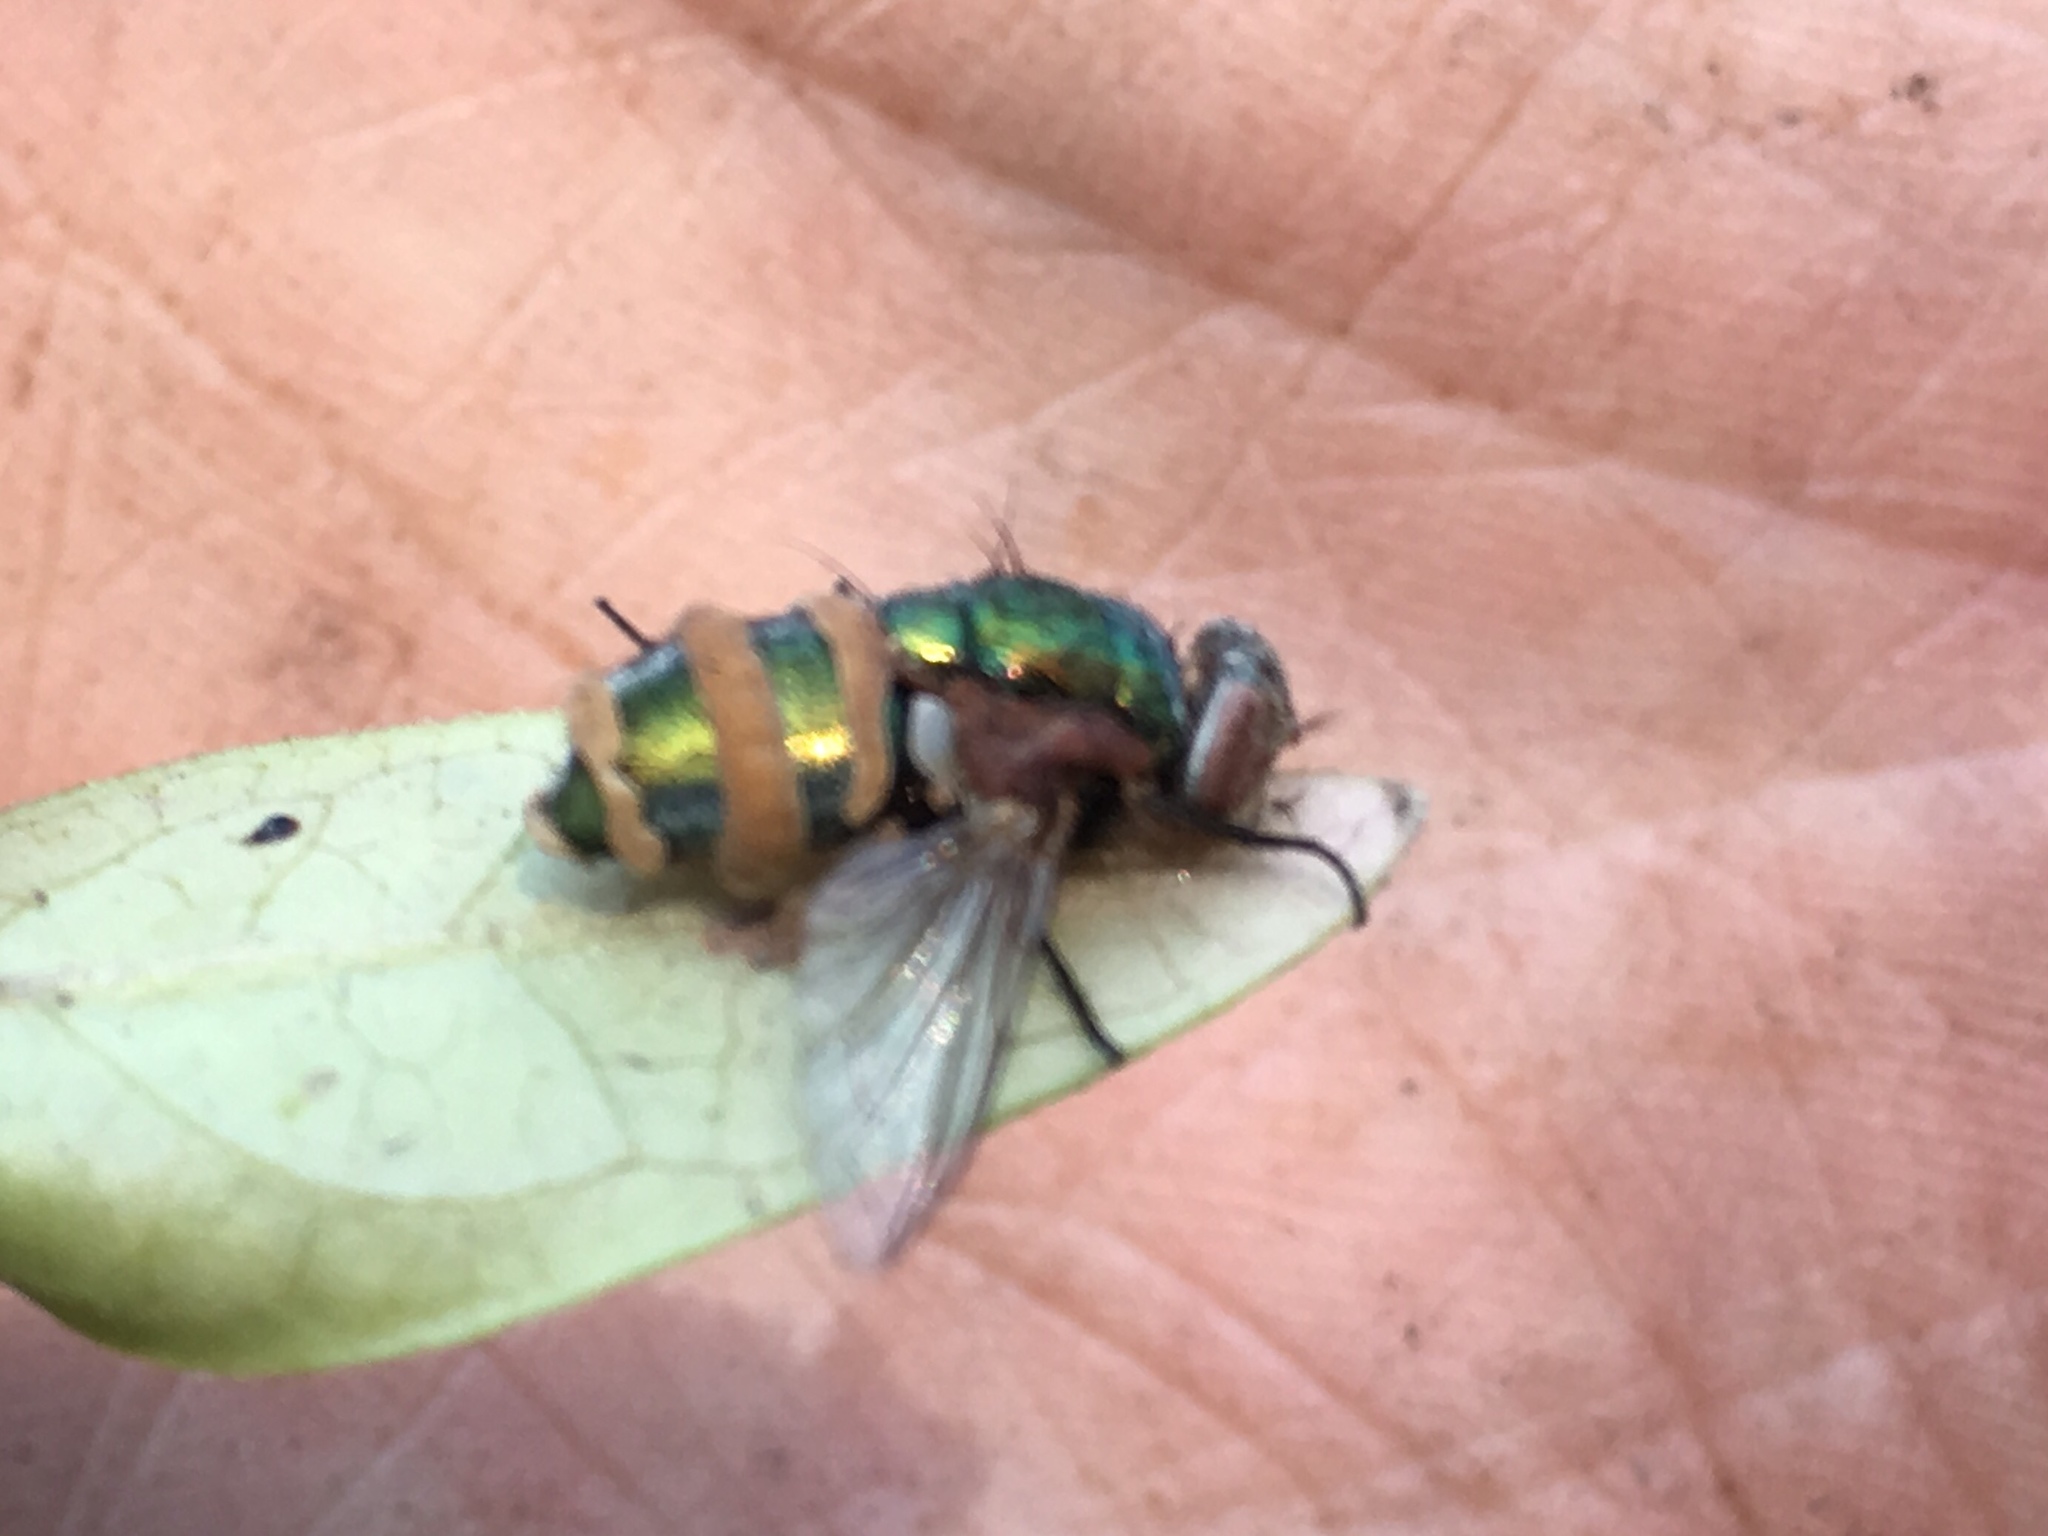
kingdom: Fungi
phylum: Entomophthoromycota
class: Entomophthoromycetes
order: Entomophthorales
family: Entomophthoraceae
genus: Entomophthora
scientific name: Entomophthora
